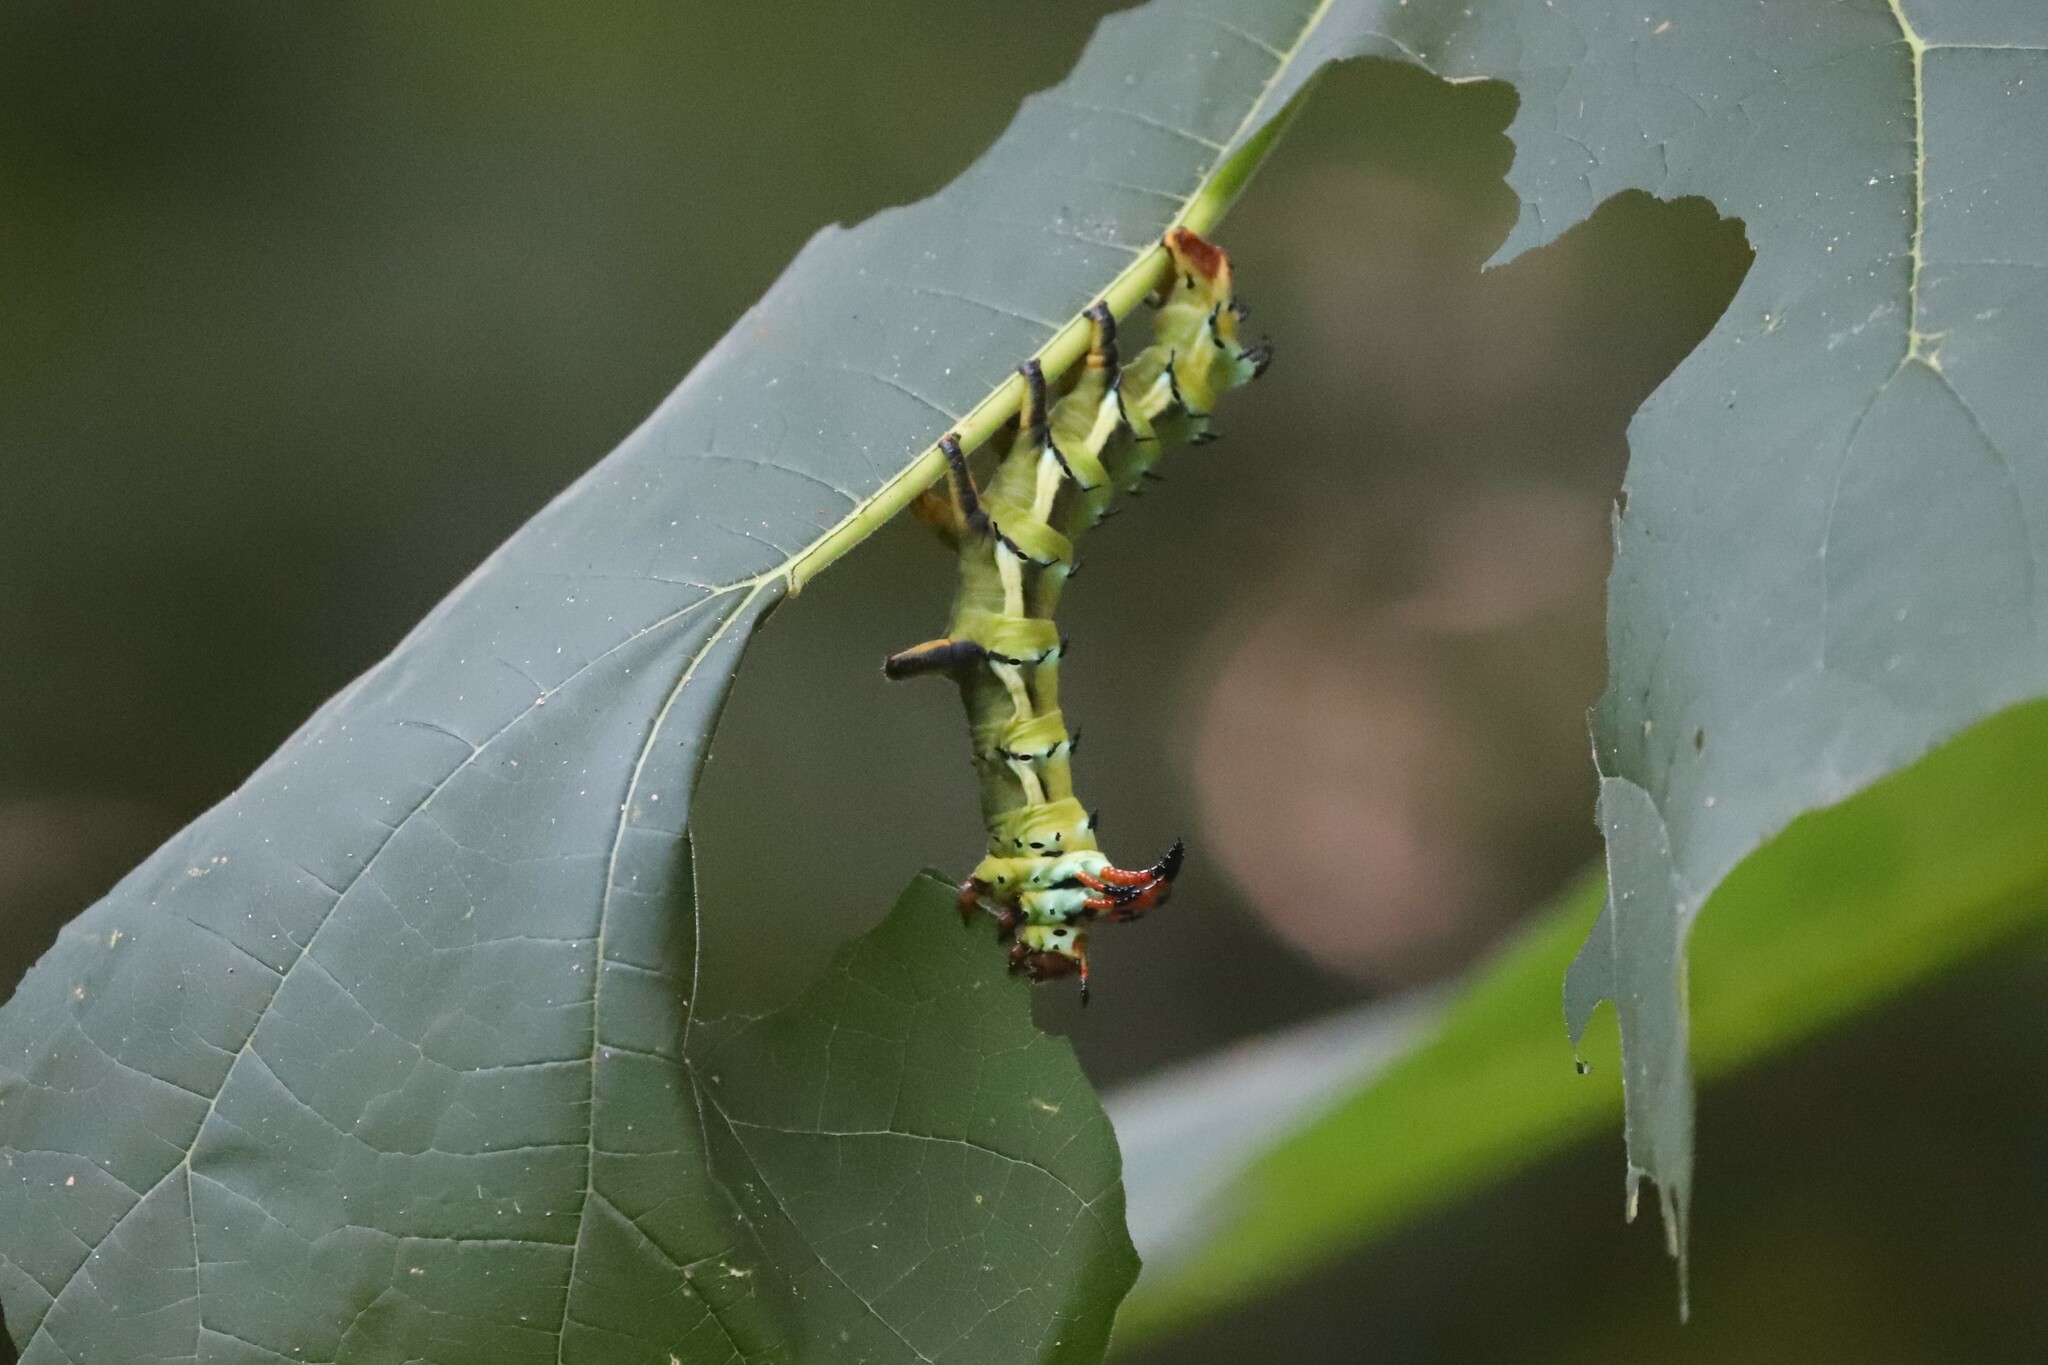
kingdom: Animalia
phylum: Arthropoda
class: Insecta
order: Lepidoptera
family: Saturniidae
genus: Citheronia
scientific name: Citheronia regalis
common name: Hickory horned devil
